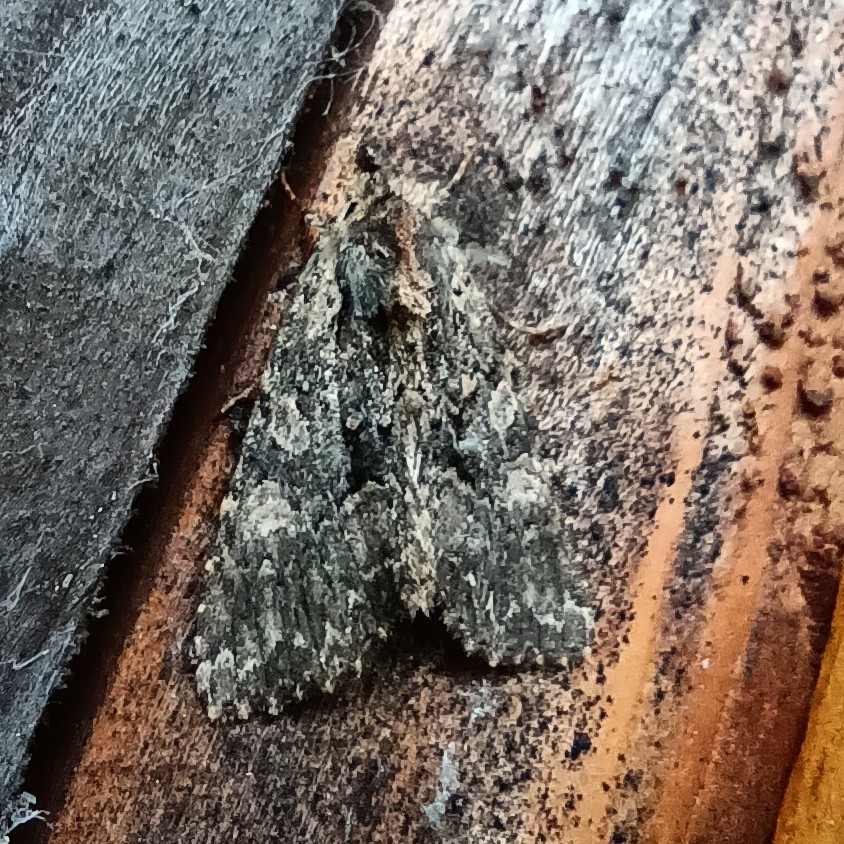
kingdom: Animalia
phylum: Arthropoda
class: Insecta
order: Lepidoptera
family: Noctuidae
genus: Mniotype
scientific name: Mniotype satura
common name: Beautiful arches
